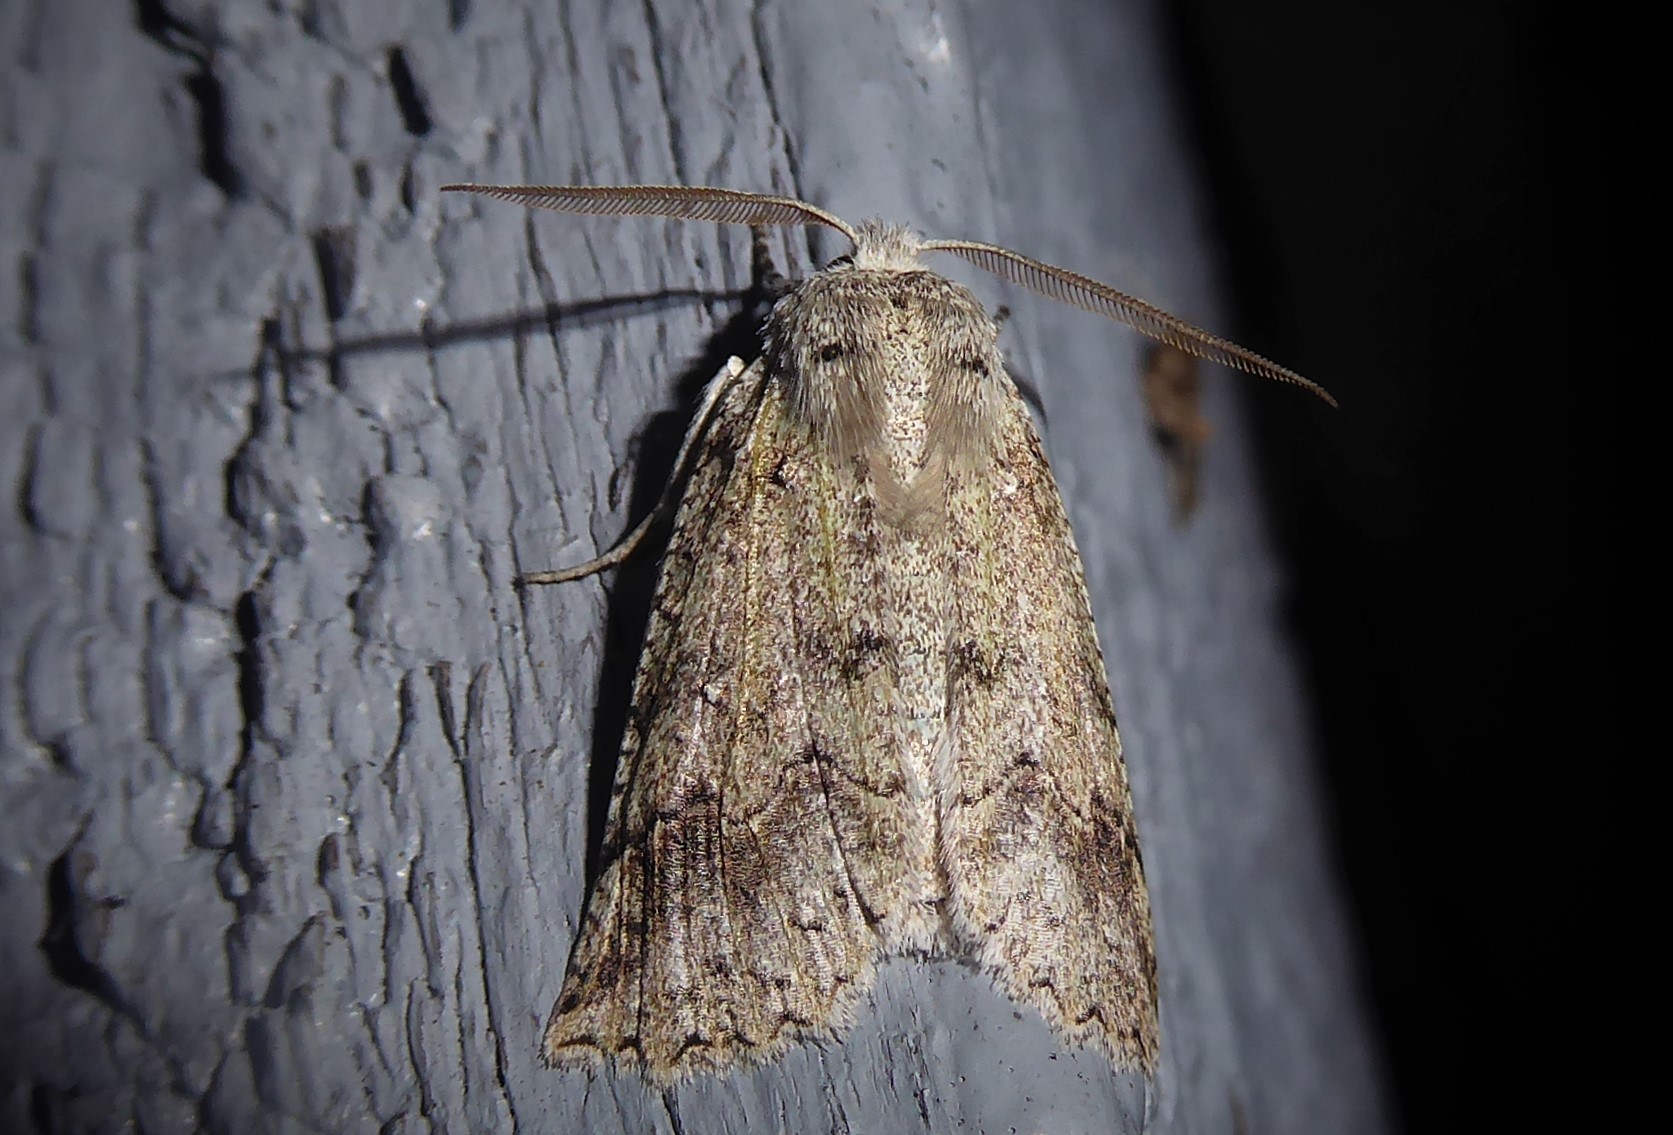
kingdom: Animalia
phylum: Arthropoda
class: Insecta
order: Lepidoptera
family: Geometridae
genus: Declana
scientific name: Declana floccosa
